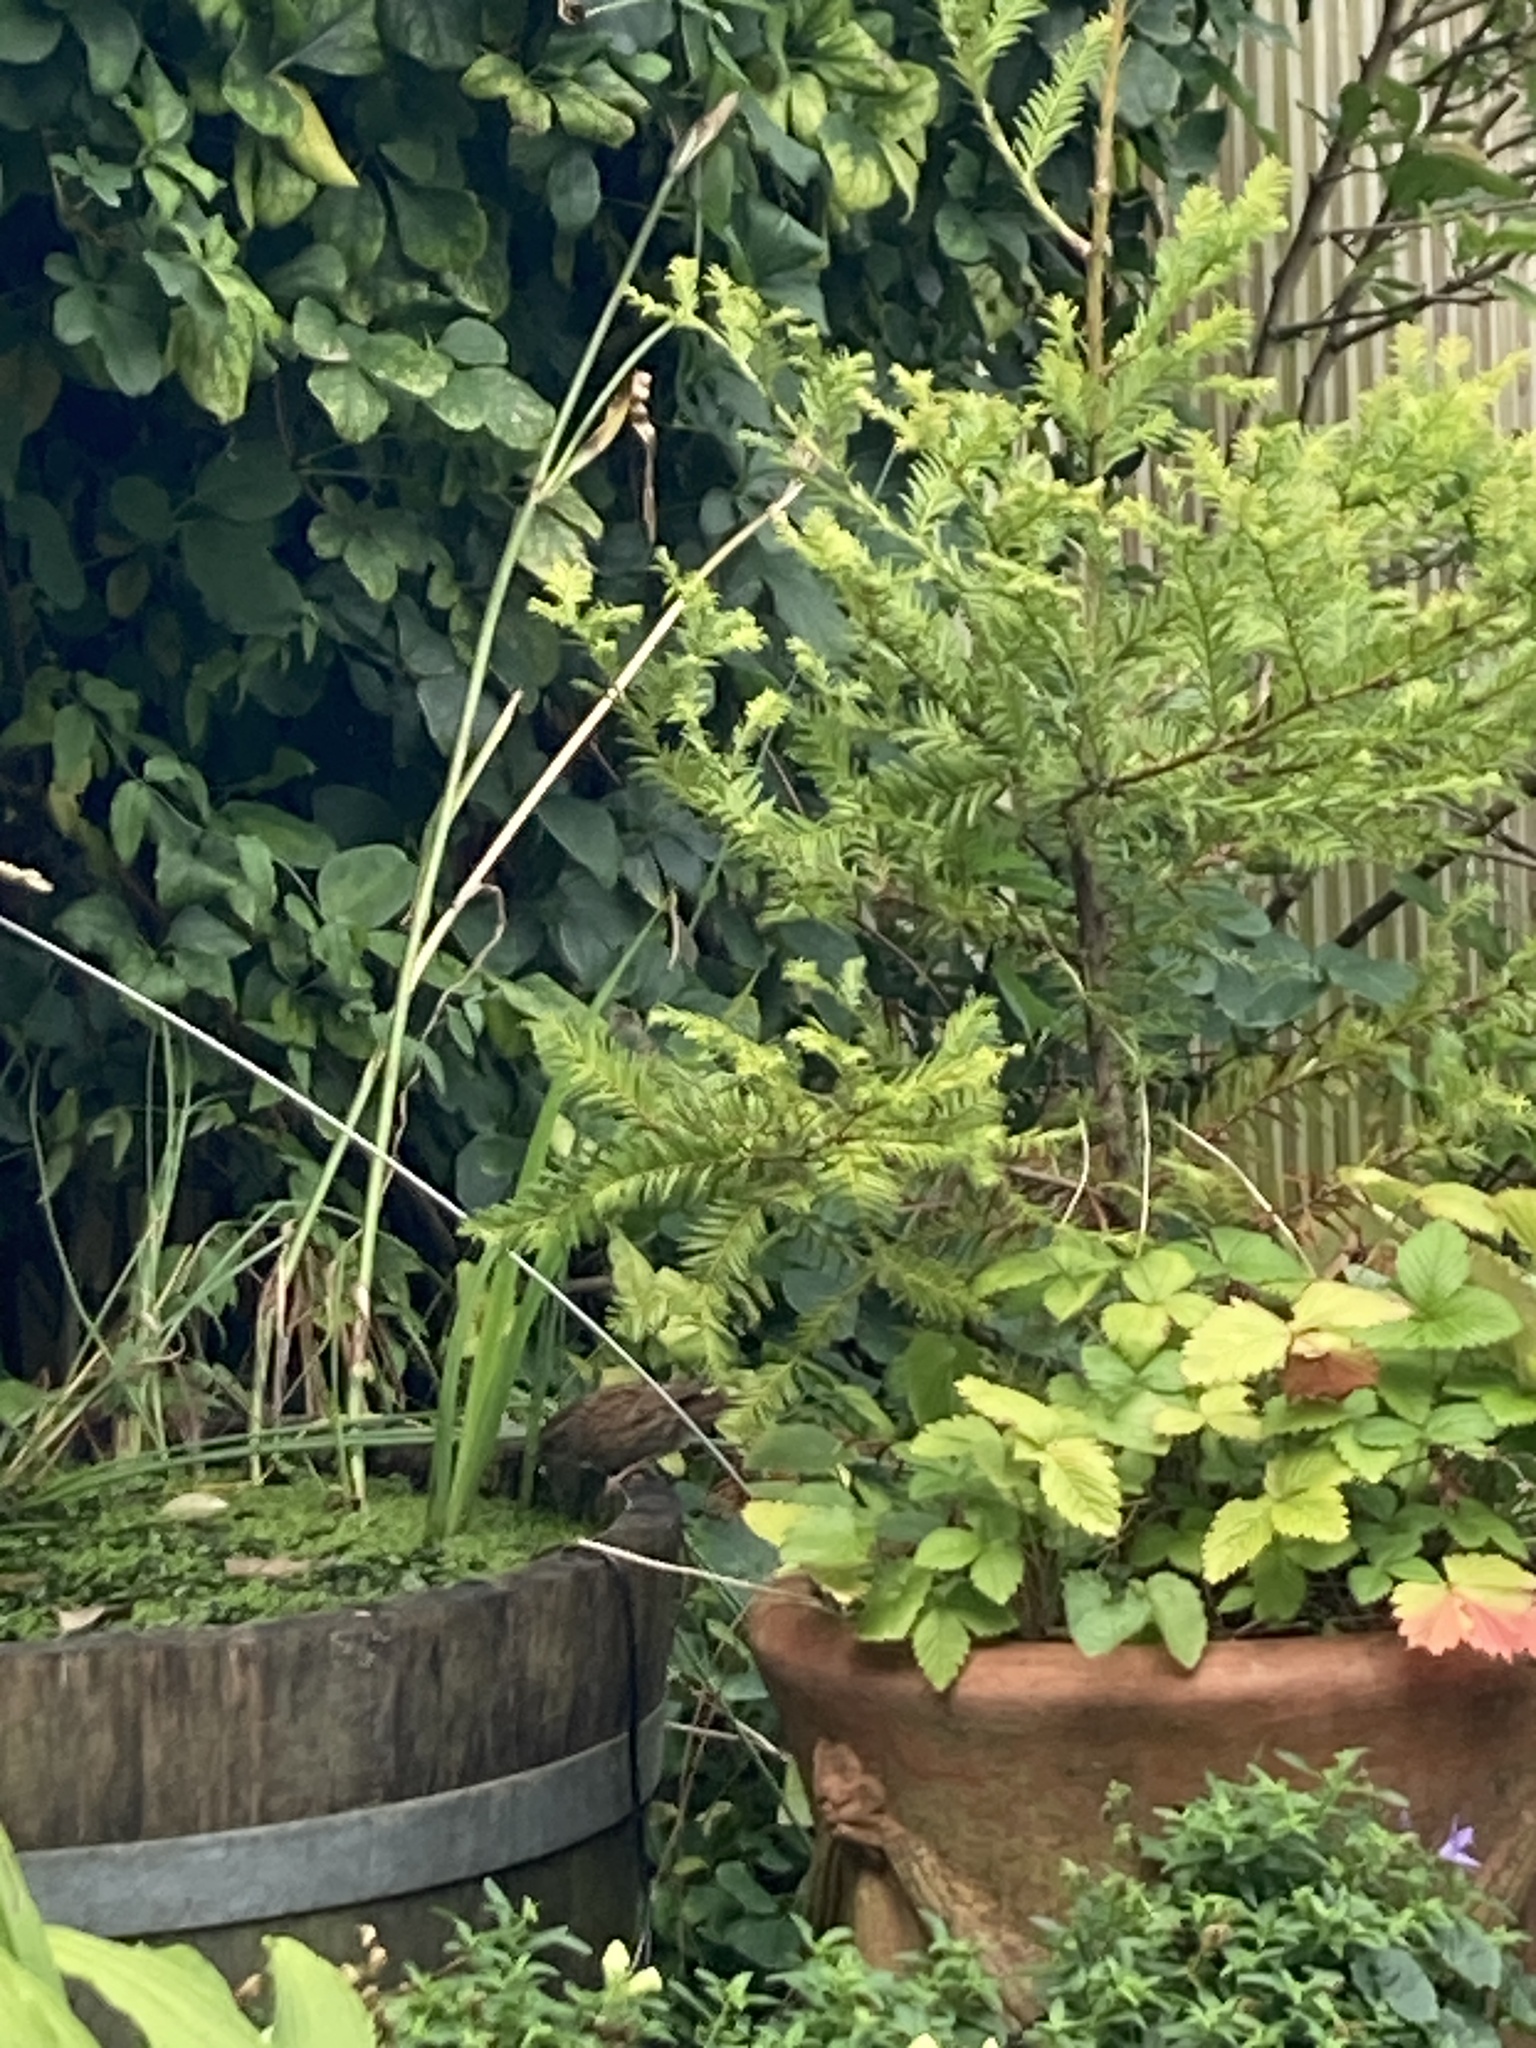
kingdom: Animalia
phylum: Chordata
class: Aves
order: Passeriformes
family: Prunellidae
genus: Prunella
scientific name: Prunella modularis
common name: Dunnock
